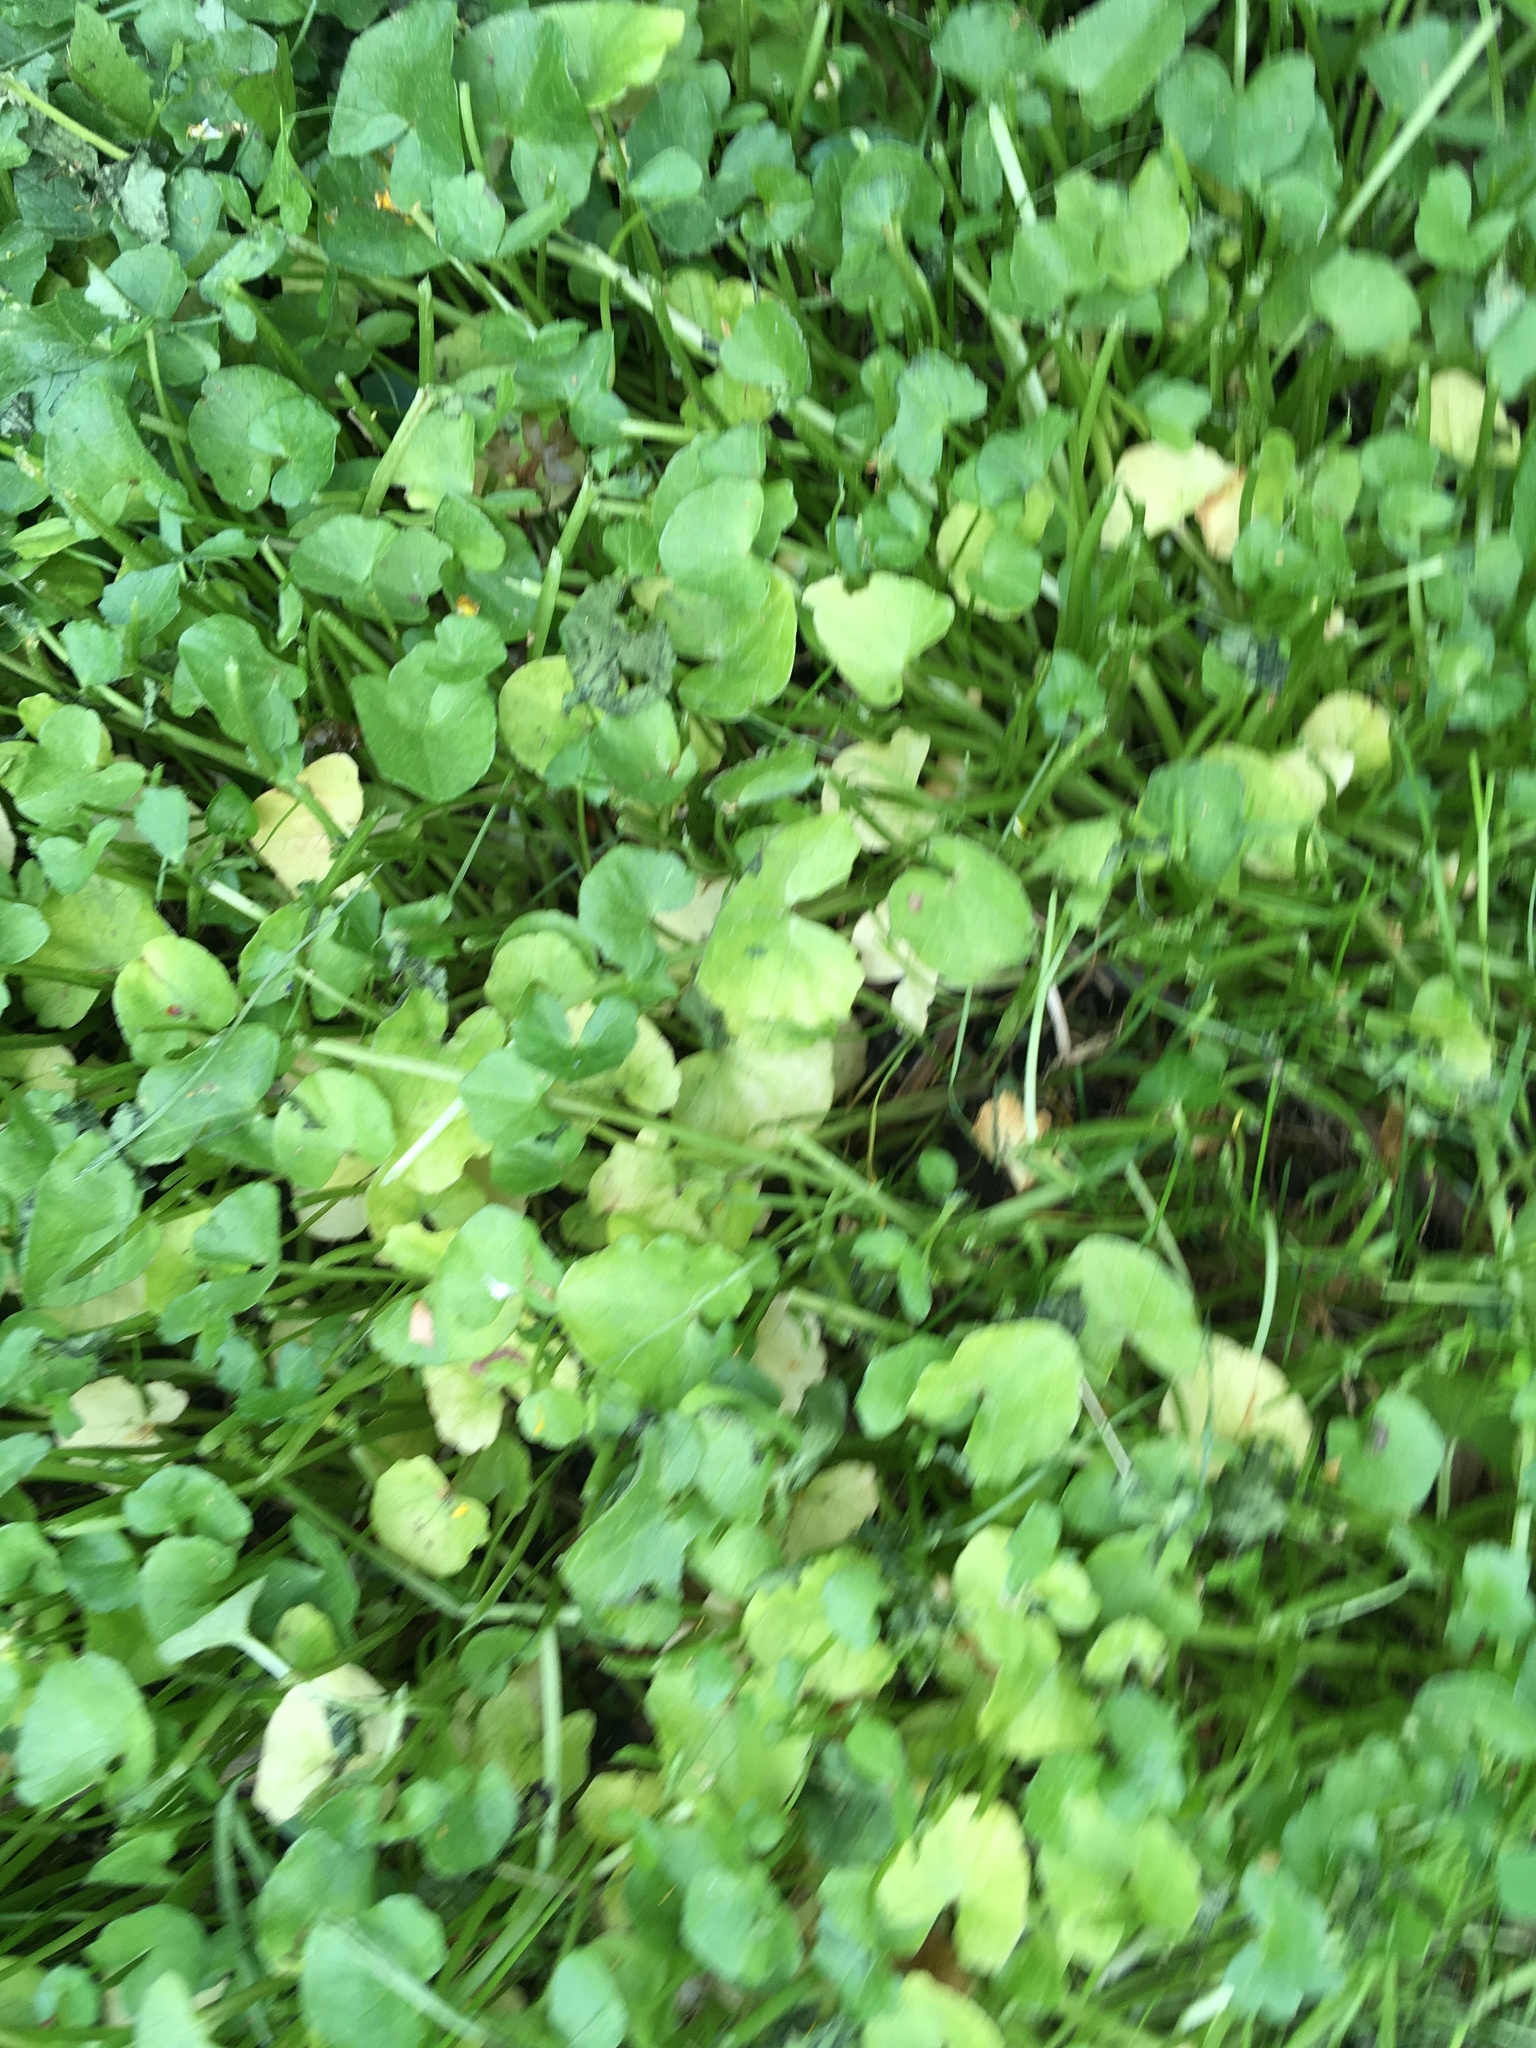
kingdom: Plantae
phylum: Tracheophyta
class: Magnoliopsida
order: Ranunculales
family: Ranunculaceae
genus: Ficaria
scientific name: Ficaria verna
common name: Lesser celandine
